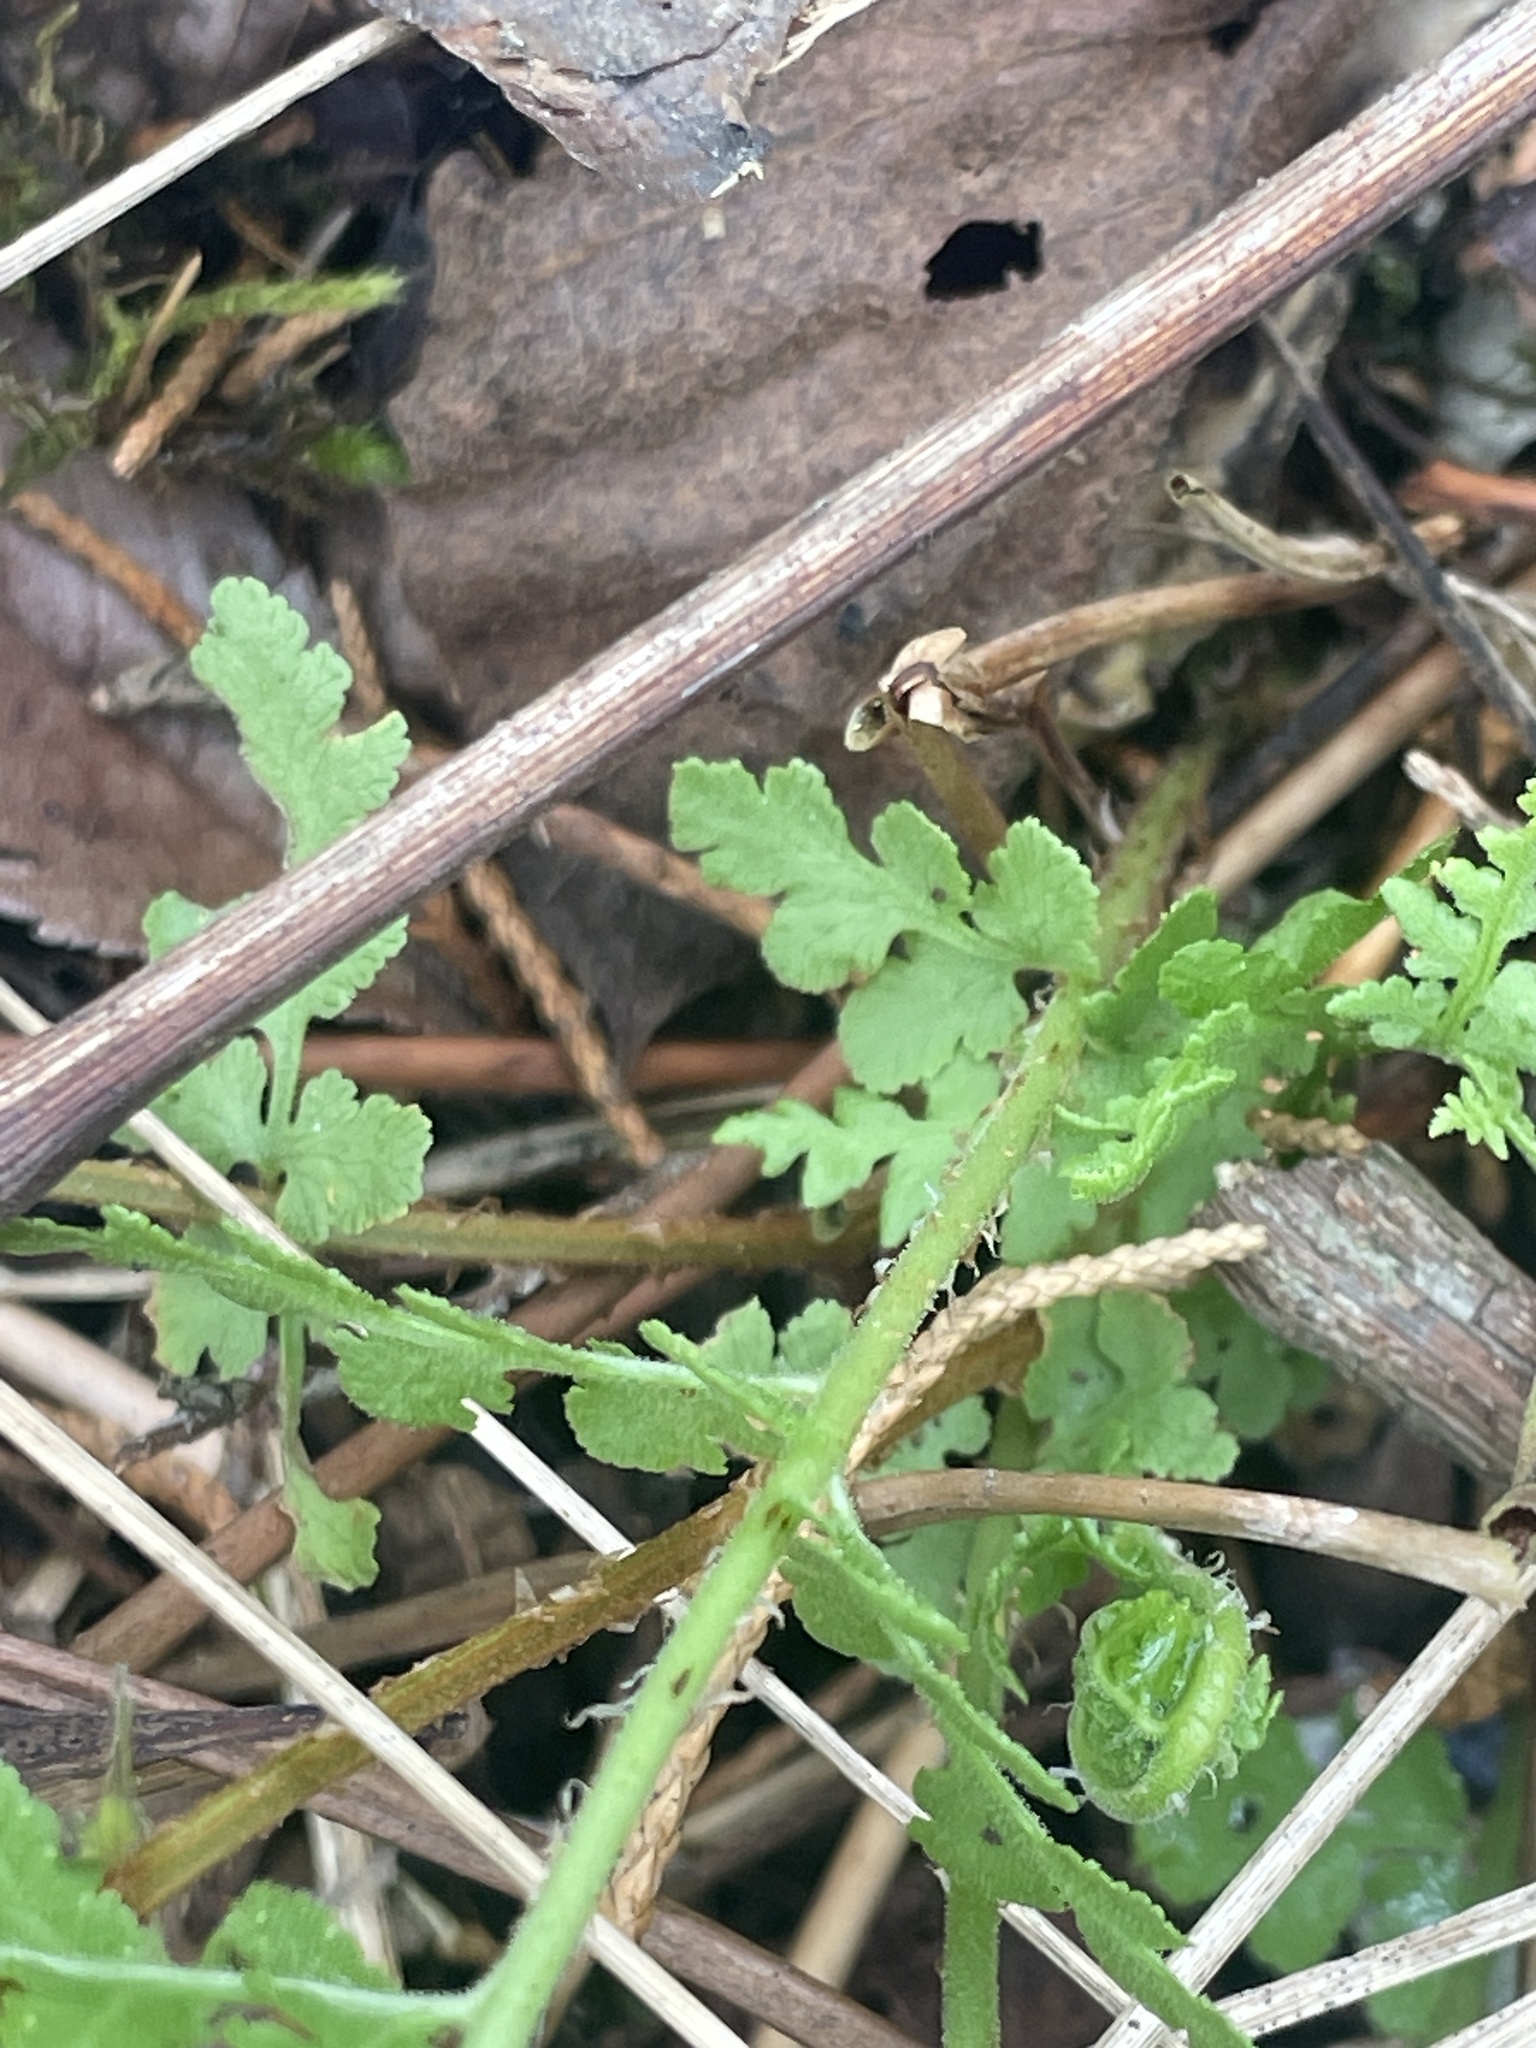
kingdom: Plantae
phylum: Tracheophyta
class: Polypodiopsida
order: Polypodiales
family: Woodsiaceae
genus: Physematium
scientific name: Physematium obtusum
